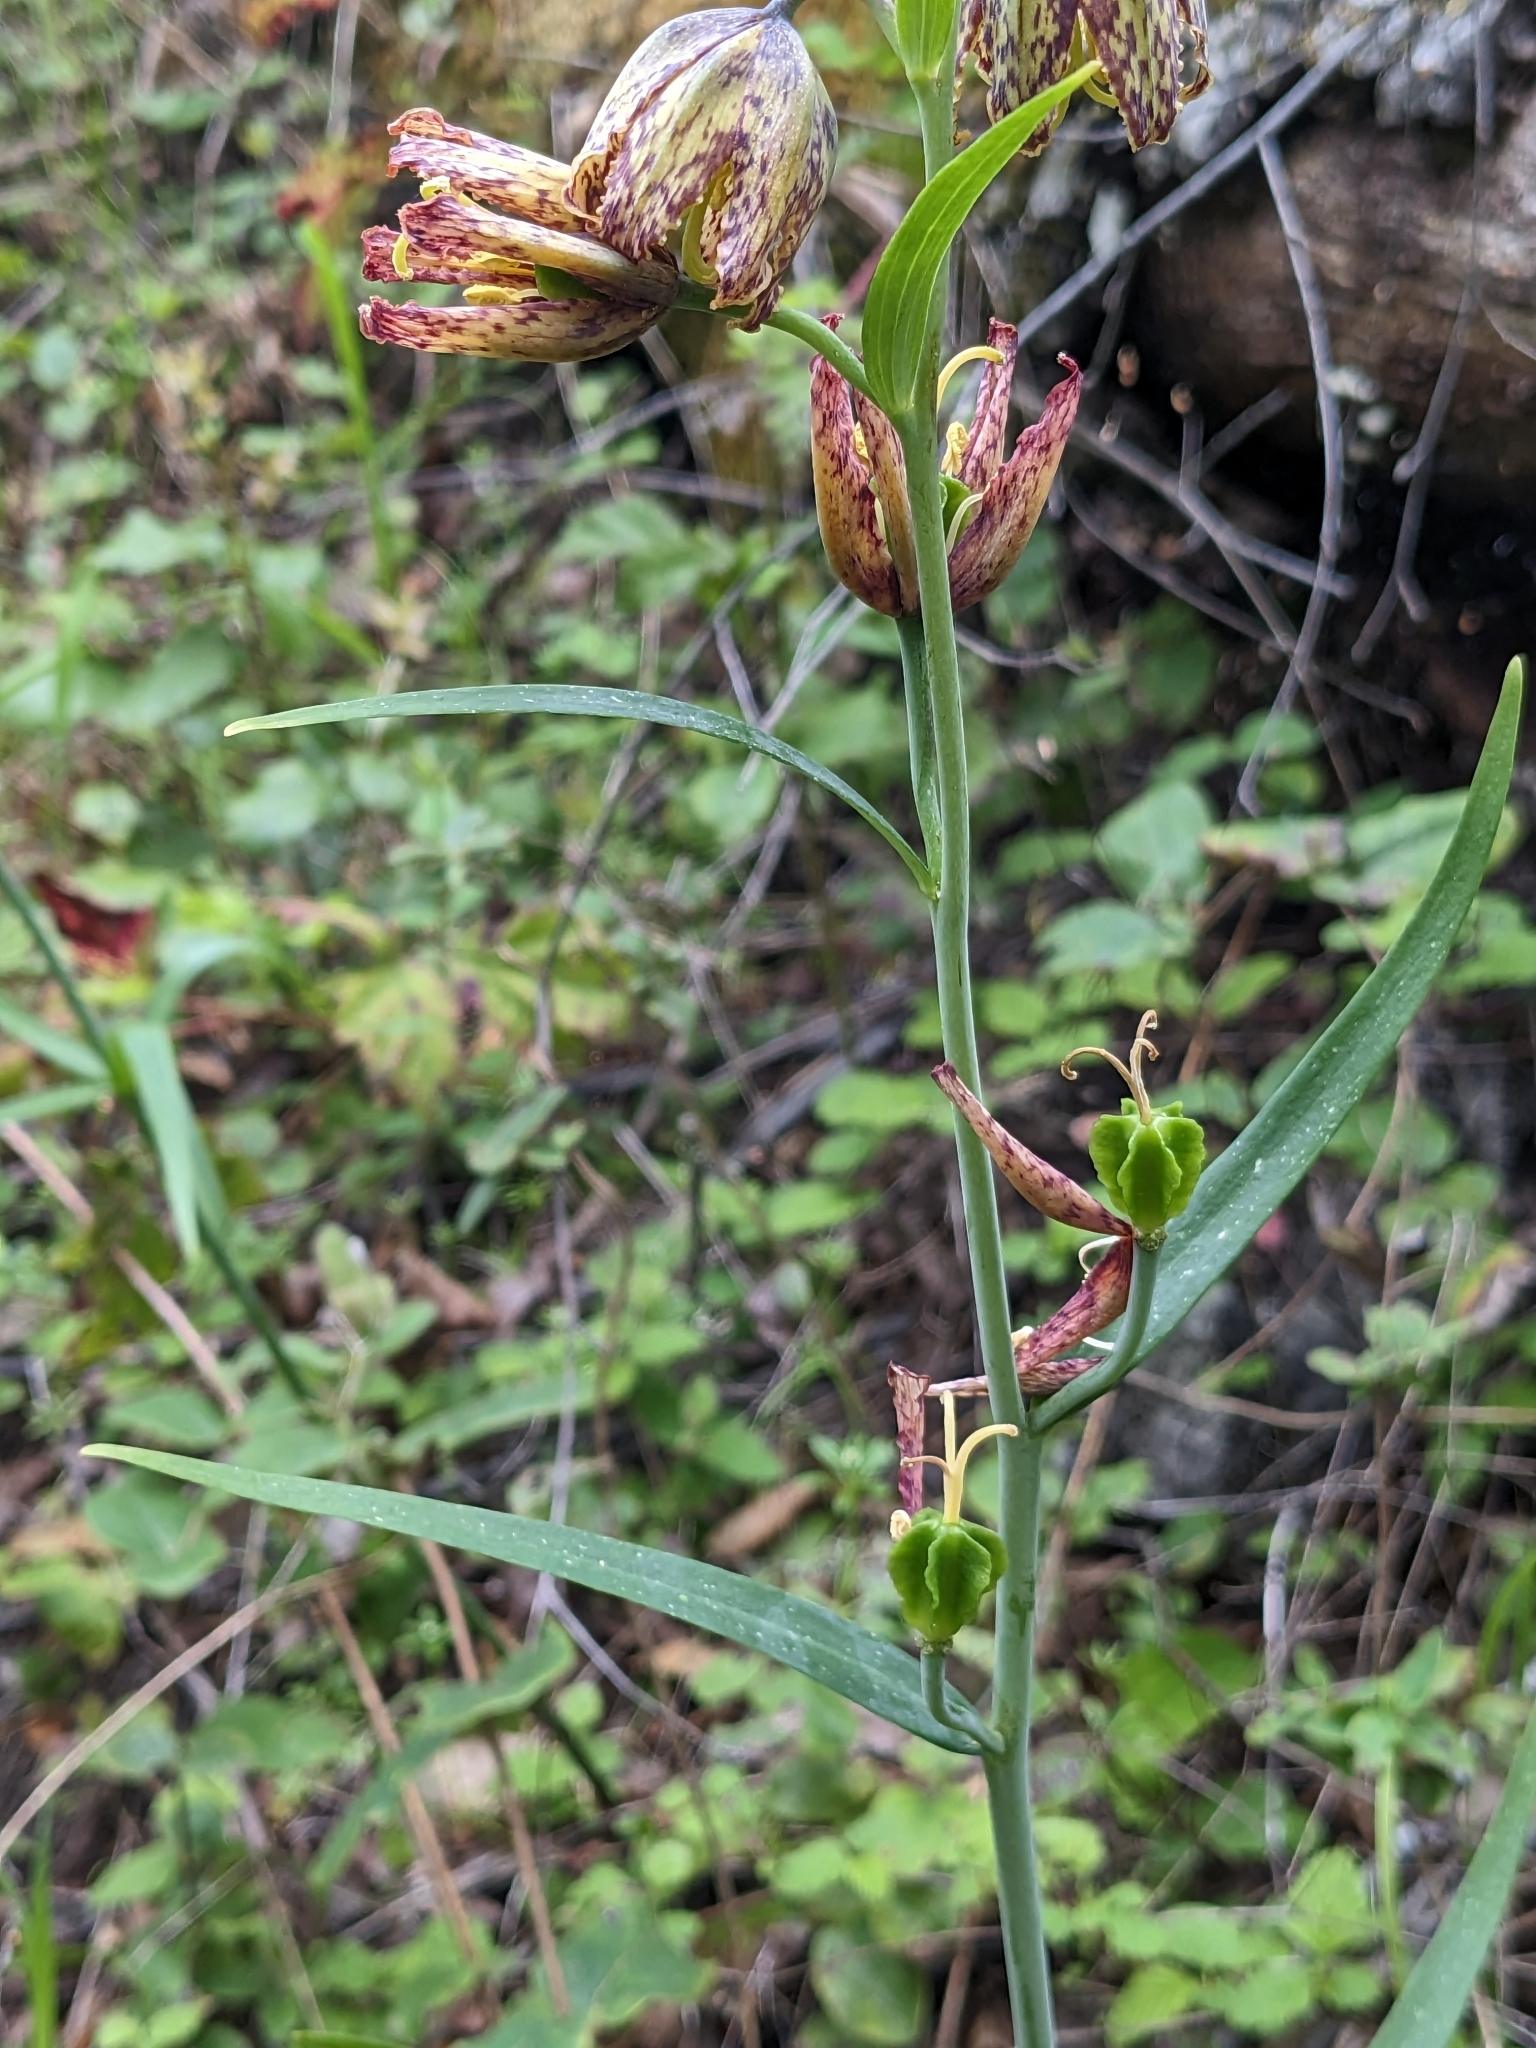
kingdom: Plantae
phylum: Tracheophyta
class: Liliopsida
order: Liliales
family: Liliaceae
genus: Fritillaria
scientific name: Fritillaria affinis
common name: Ojai fritillary
